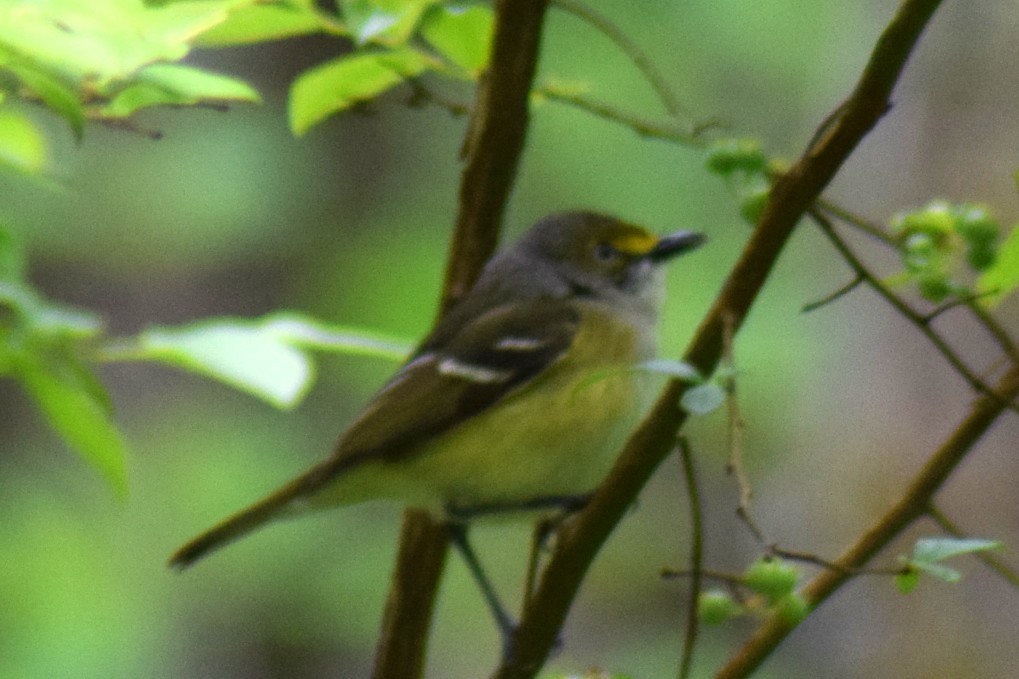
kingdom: Animalia
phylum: Chordata
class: Aves
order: Passeriformes
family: Vireonidae
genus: Vireo
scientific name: Vireo griseus
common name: White-eyed vireo
